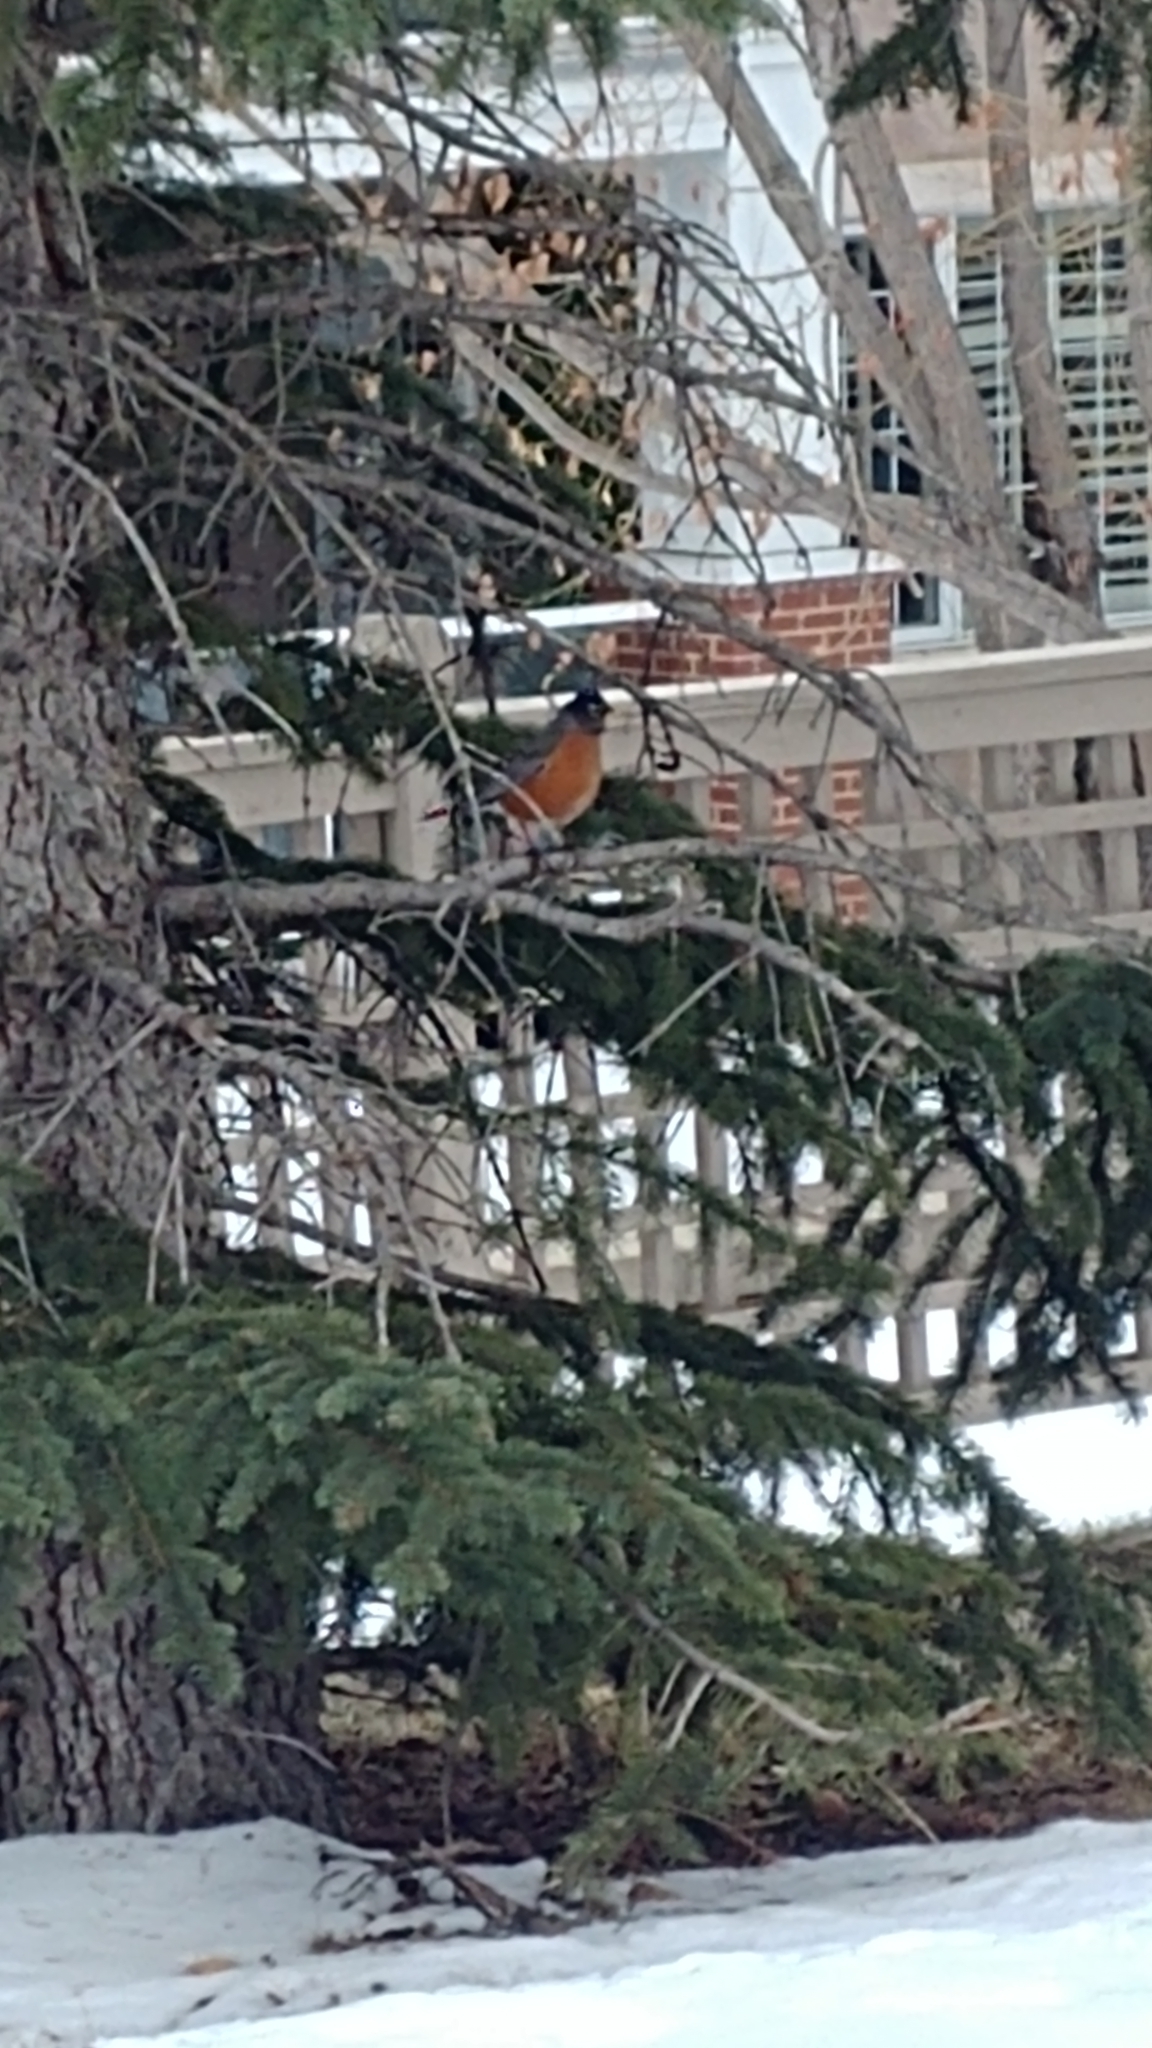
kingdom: Animalia
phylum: Chordata
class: Aves
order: Passeriformes
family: Turdidae
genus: Turdus
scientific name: Turdus migratorius
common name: American robin
